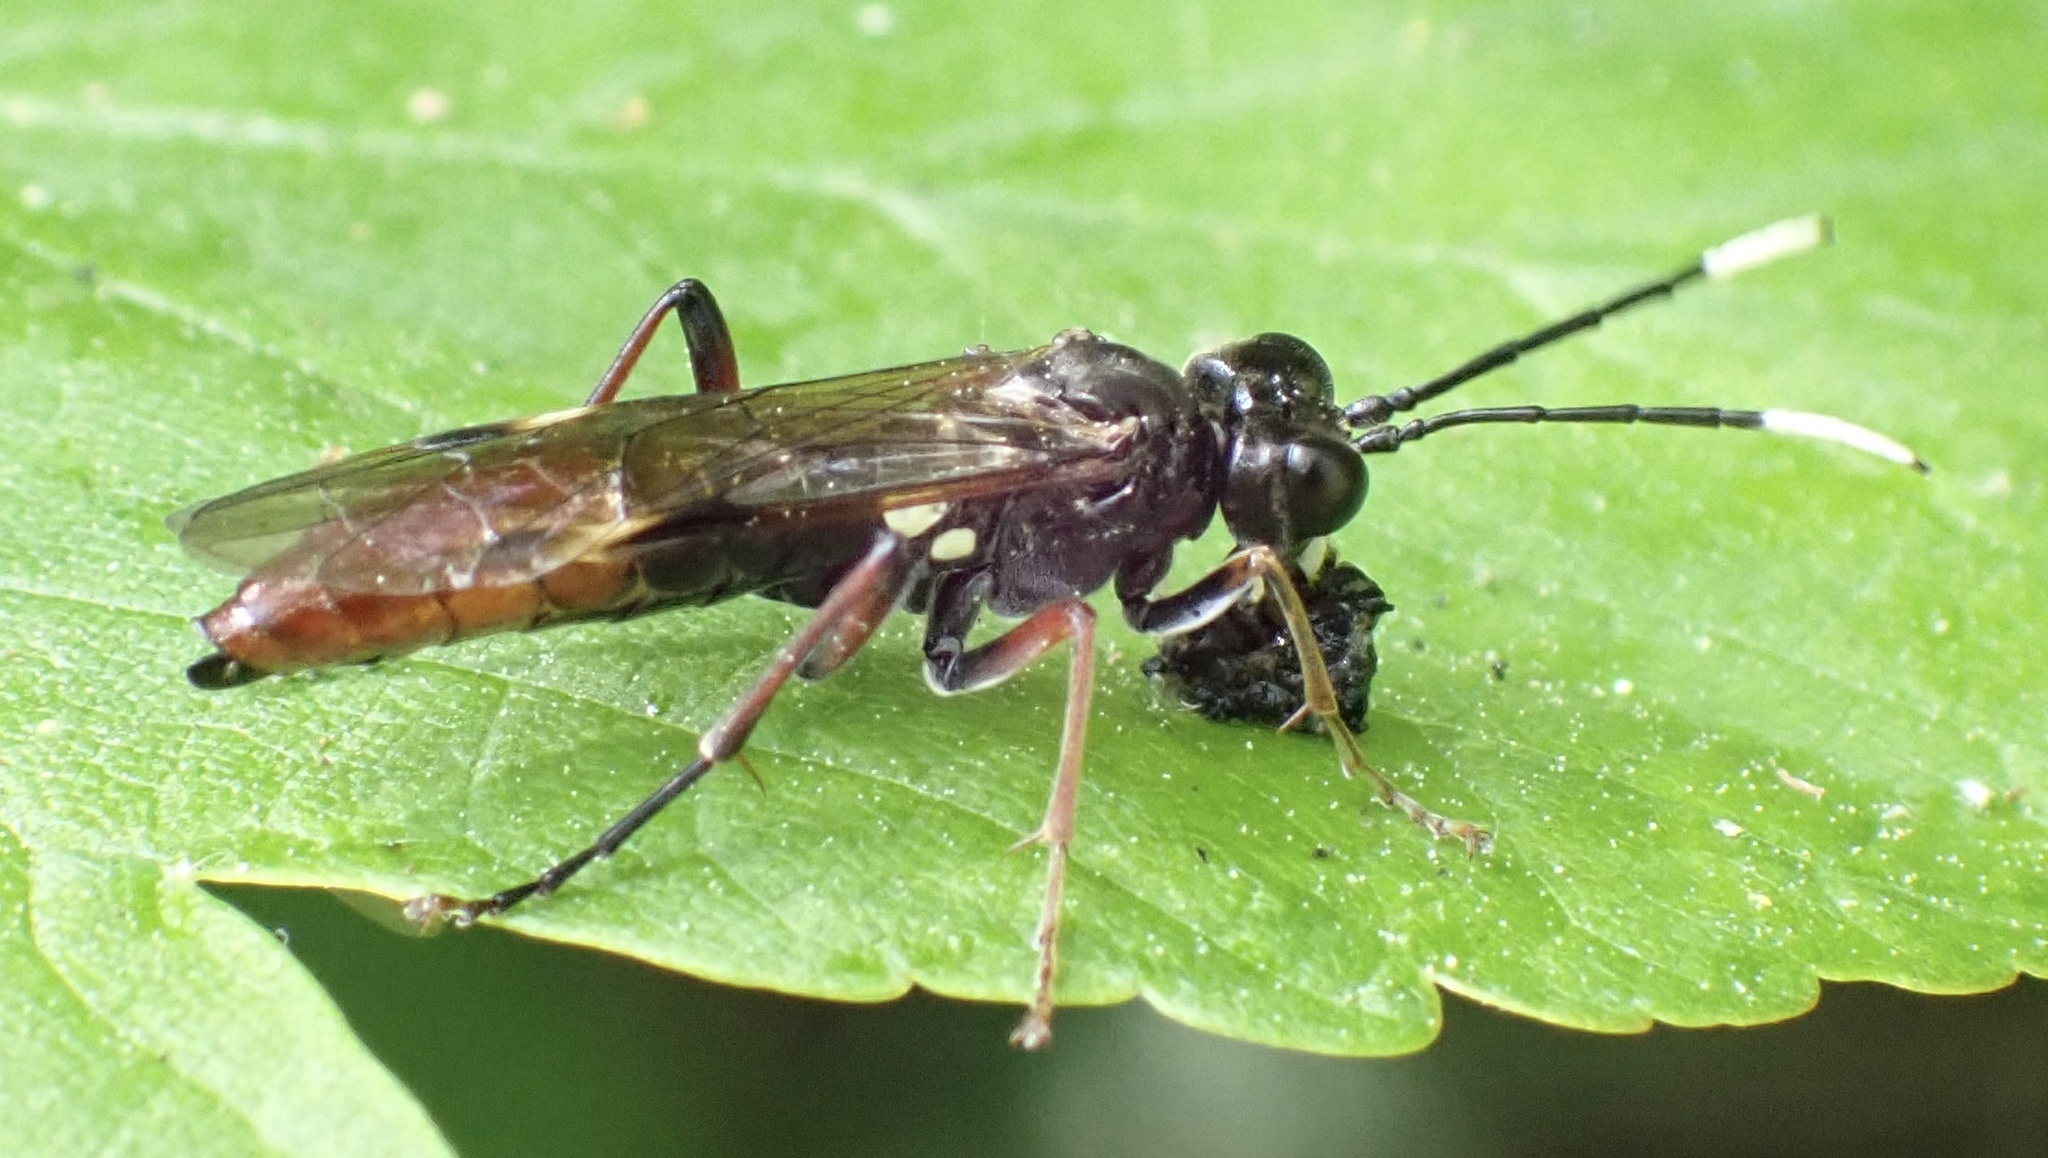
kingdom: Animalia
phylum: Arthropoda
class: Insecta
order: Hymenoptera
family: Tenthredinidae
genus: Tenthredo
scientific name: Tenthredo livida
